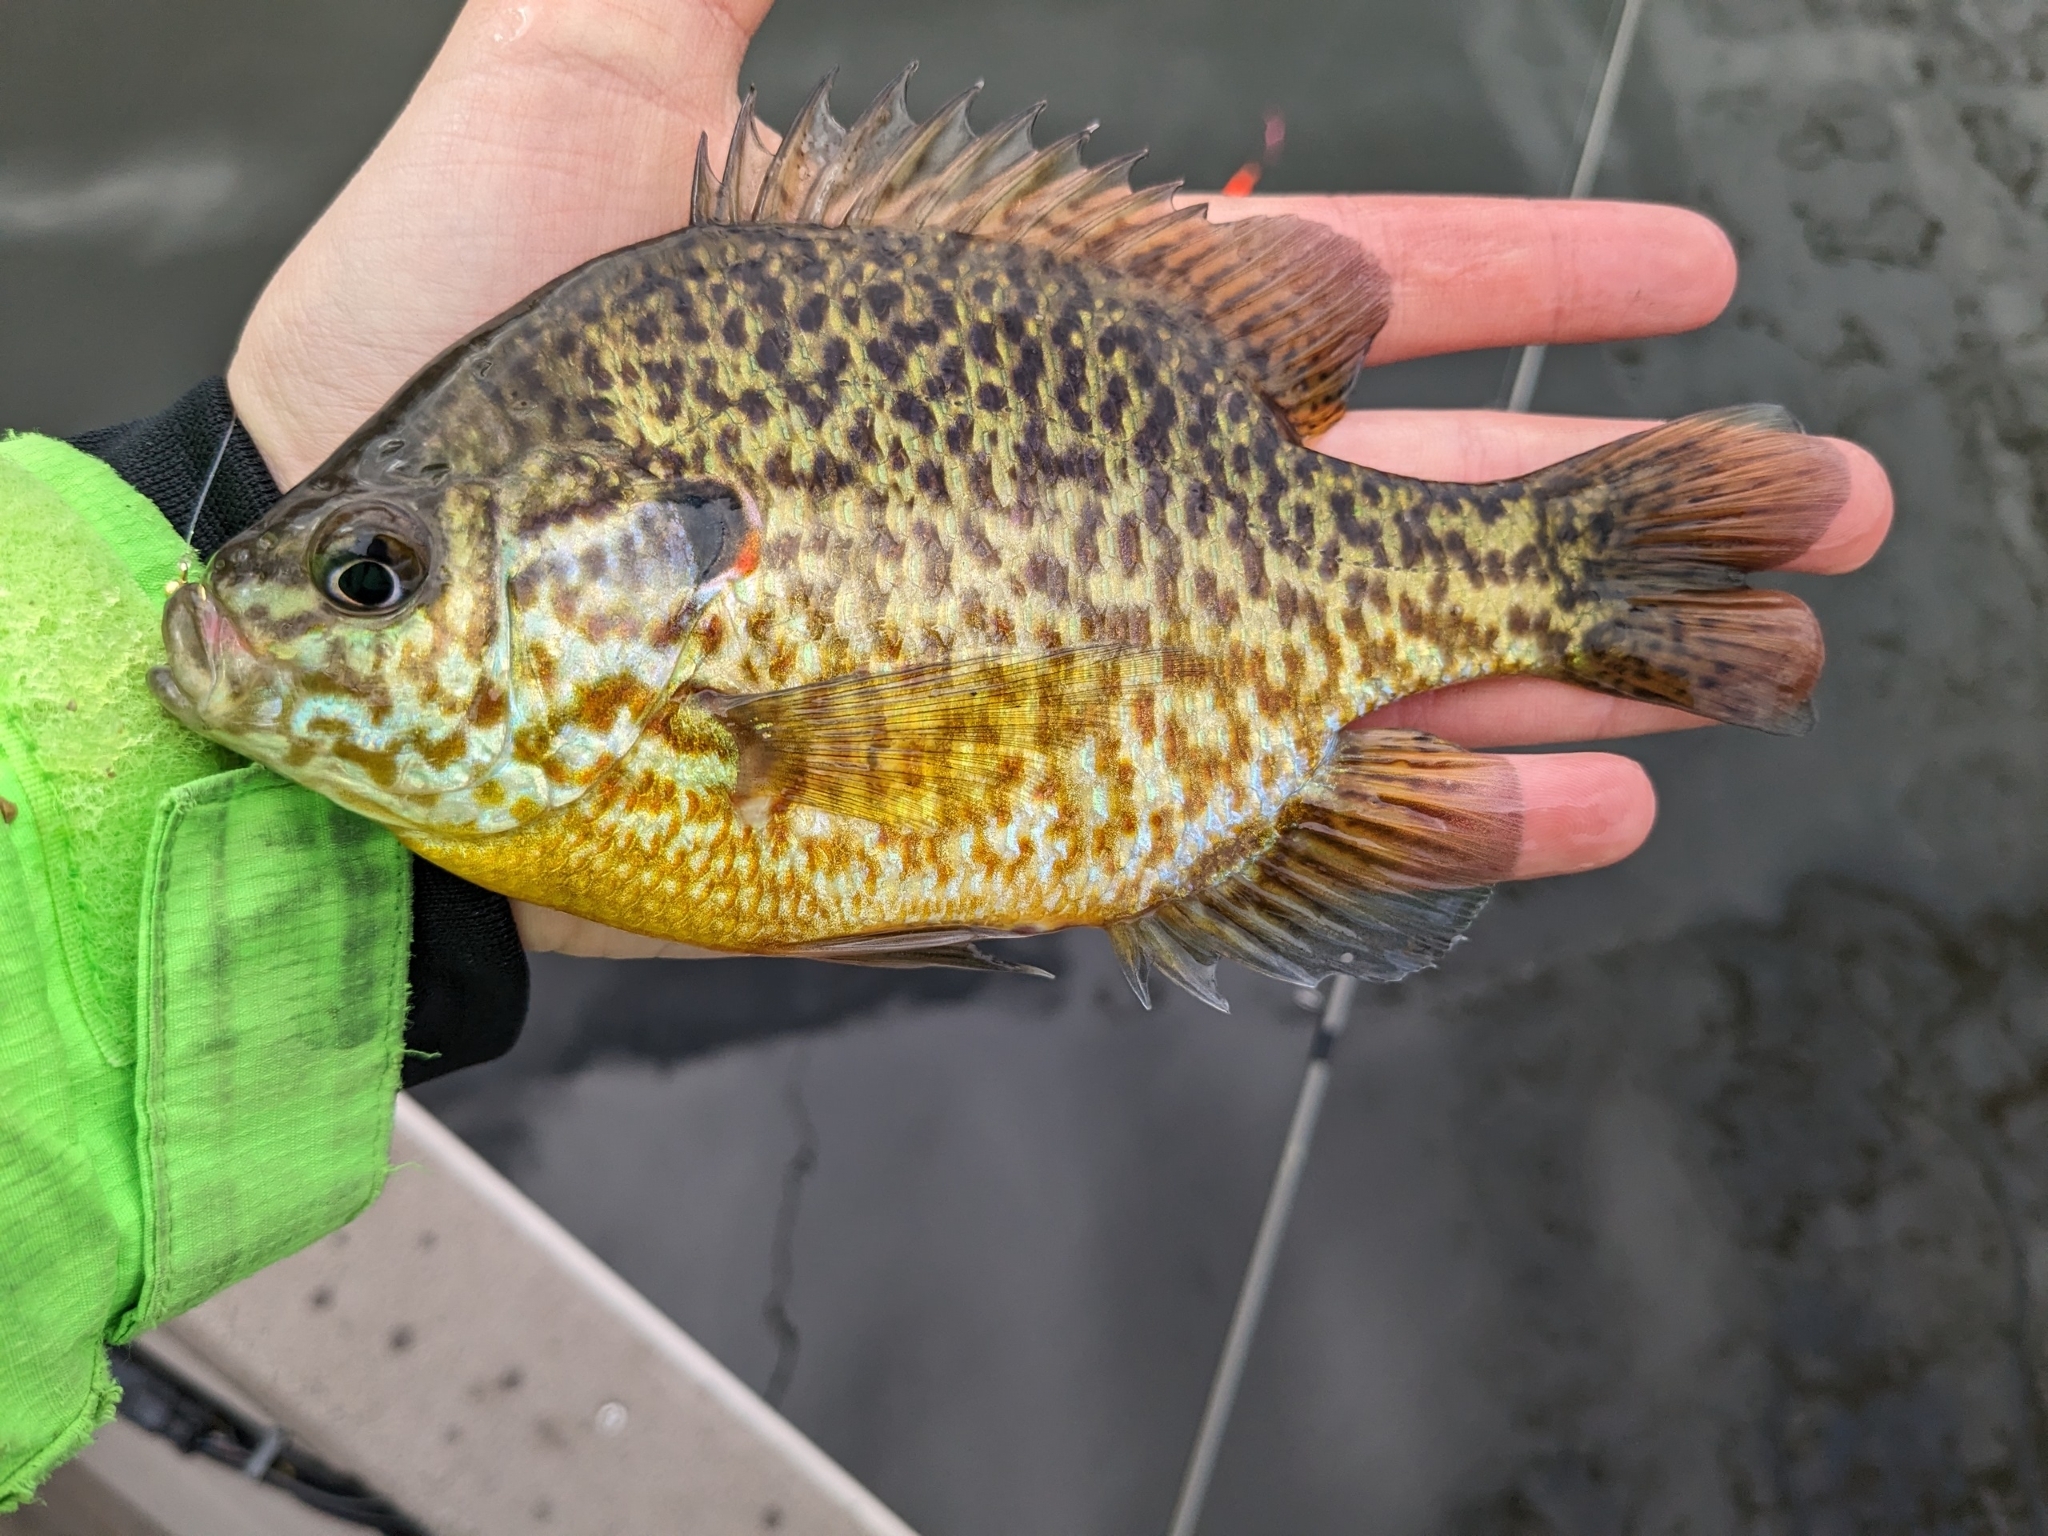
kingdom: Animalia
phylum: Chordata
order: Perciformes
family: Centrarchidae
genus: Lepomis
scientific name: Lepomis
